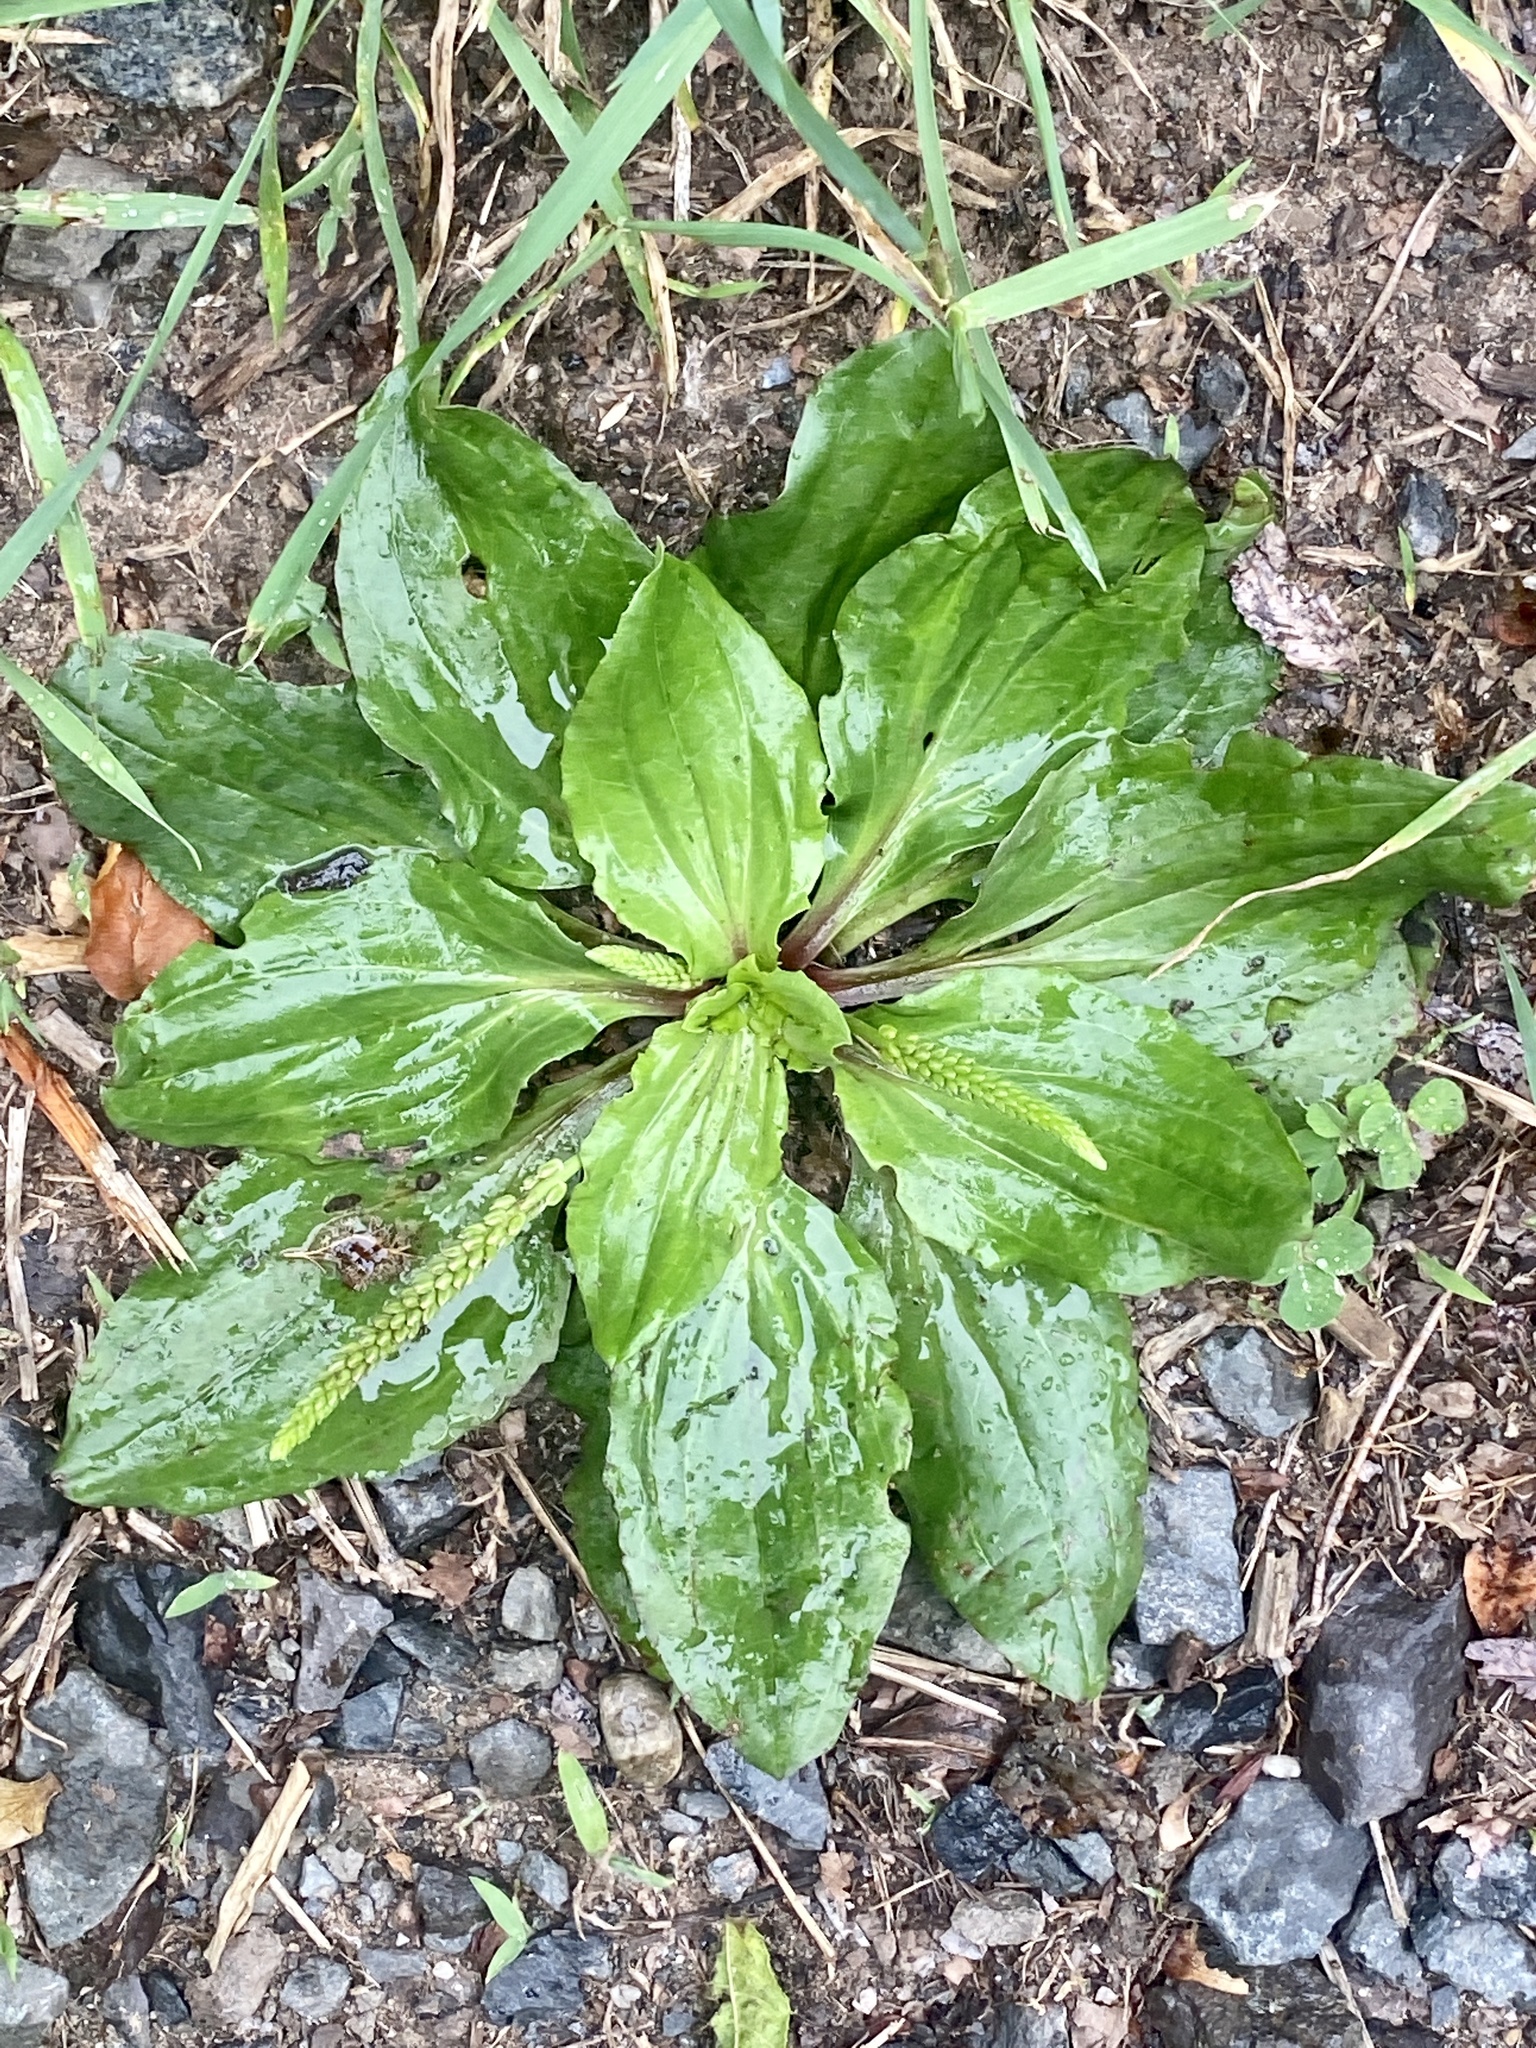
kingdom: Plantae
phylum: Tracheophyta
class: Magnoliopsida
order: Lamiales
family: Plantaginaceae
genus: Plantago
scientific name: Plantago rugelii
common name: American plantain
